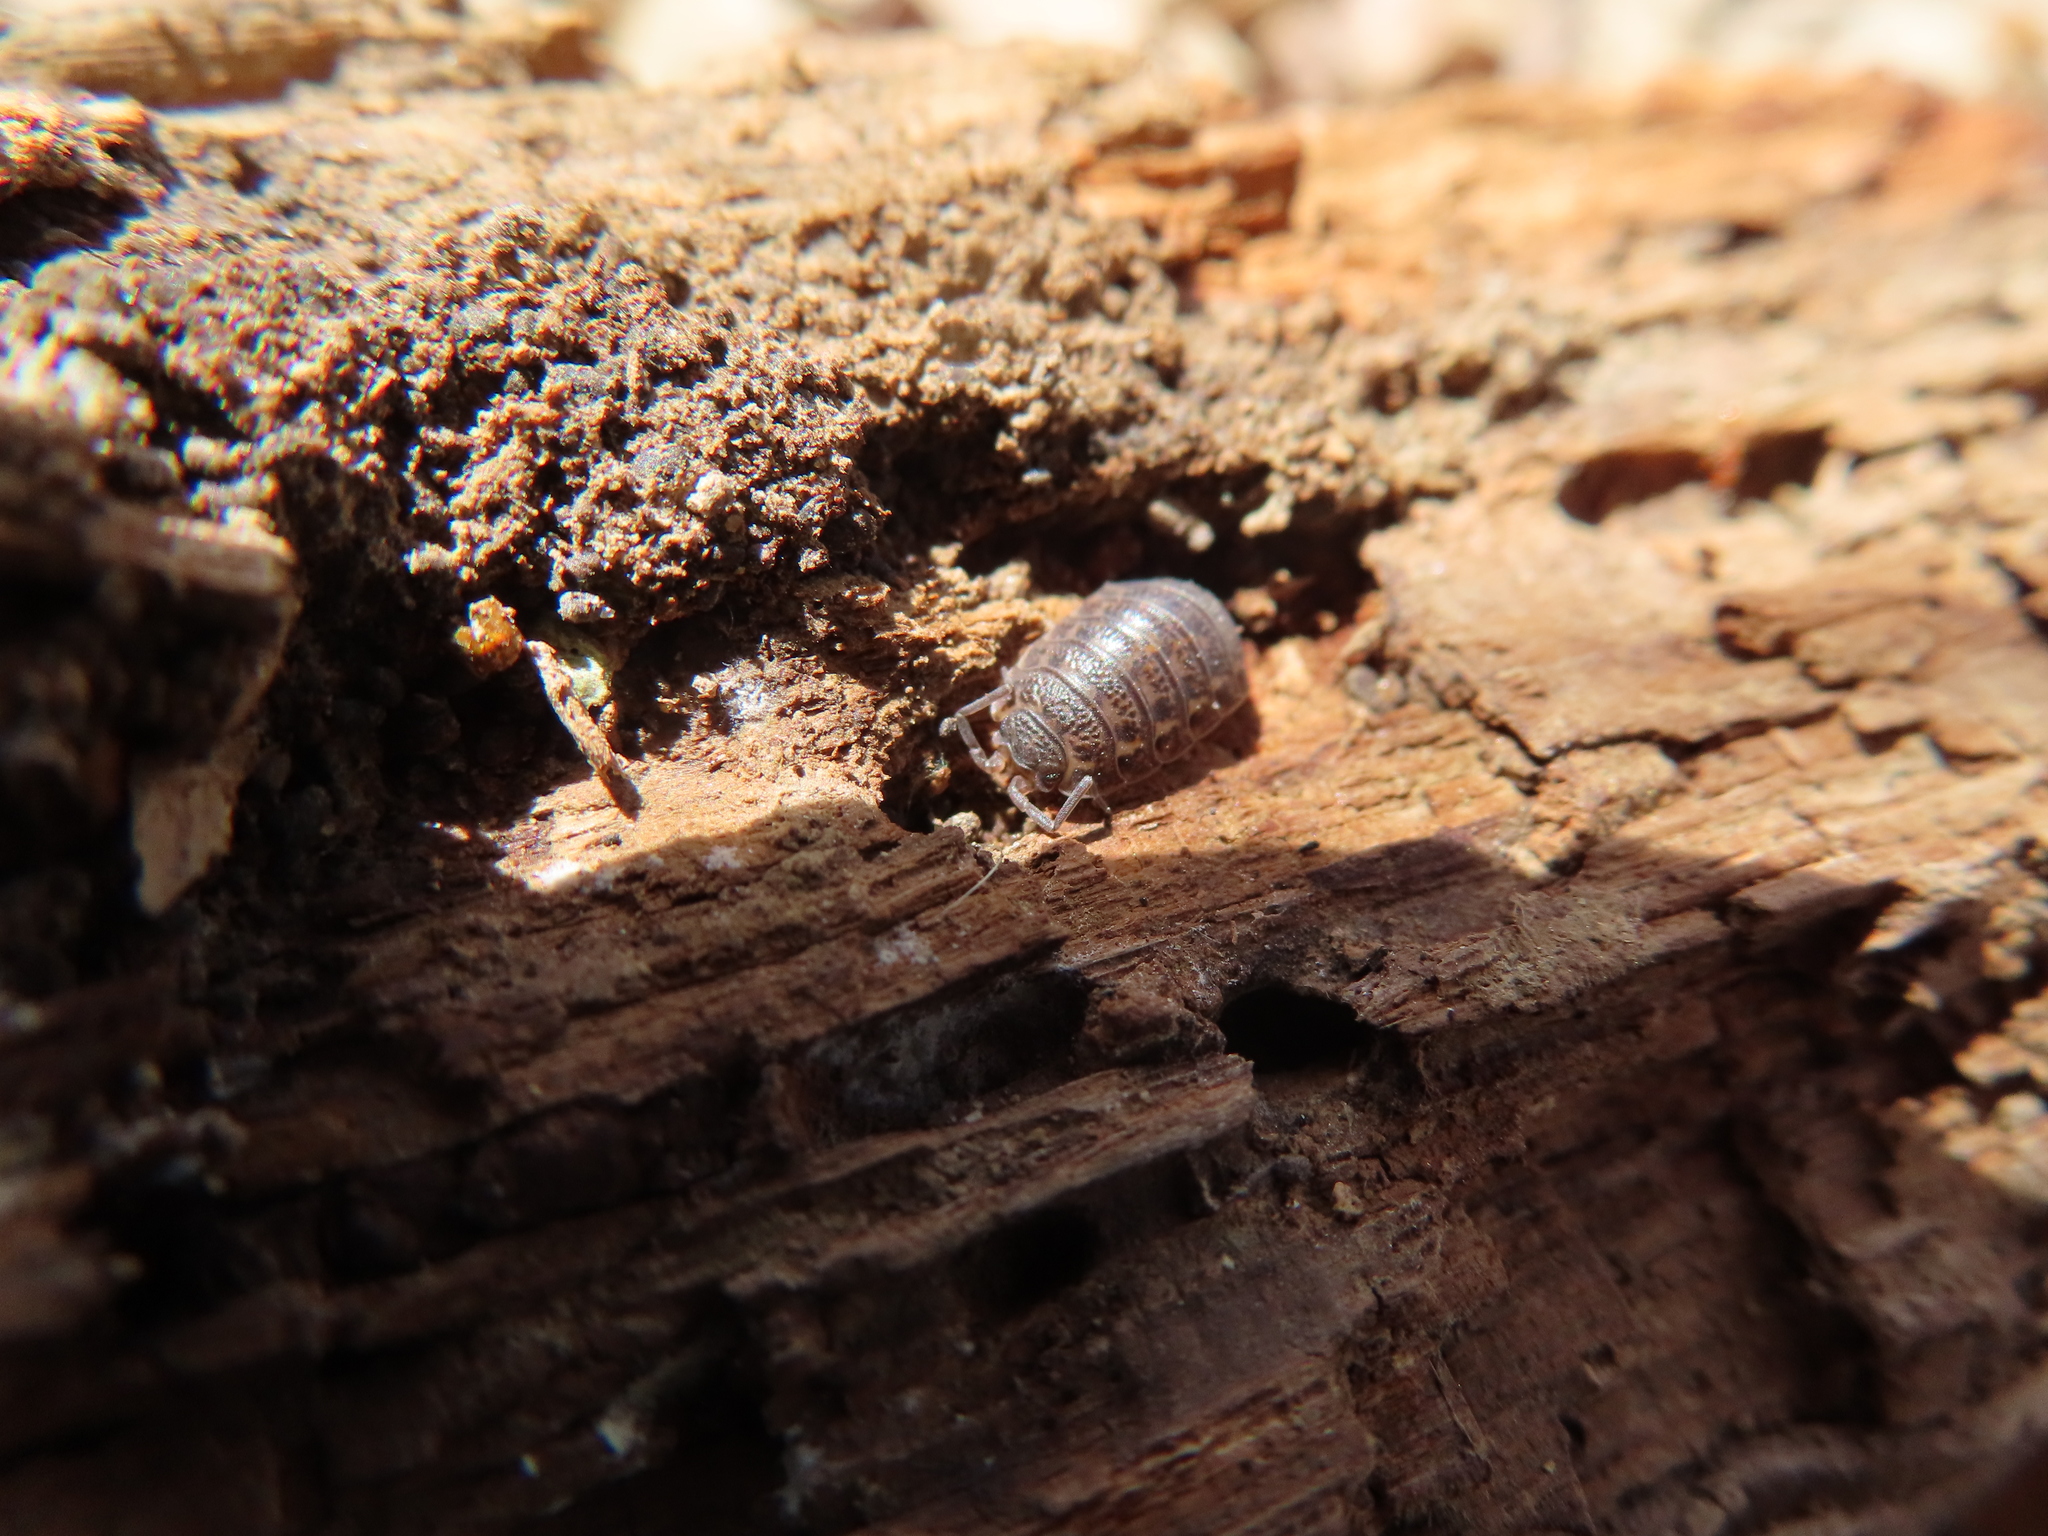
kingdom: Animalia
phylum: Arthropoda
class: Malacostraca
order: Isopoda
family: Trachelipodidae
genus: Trachelipus
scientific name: Trachelipus rathkii
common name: Isopod
